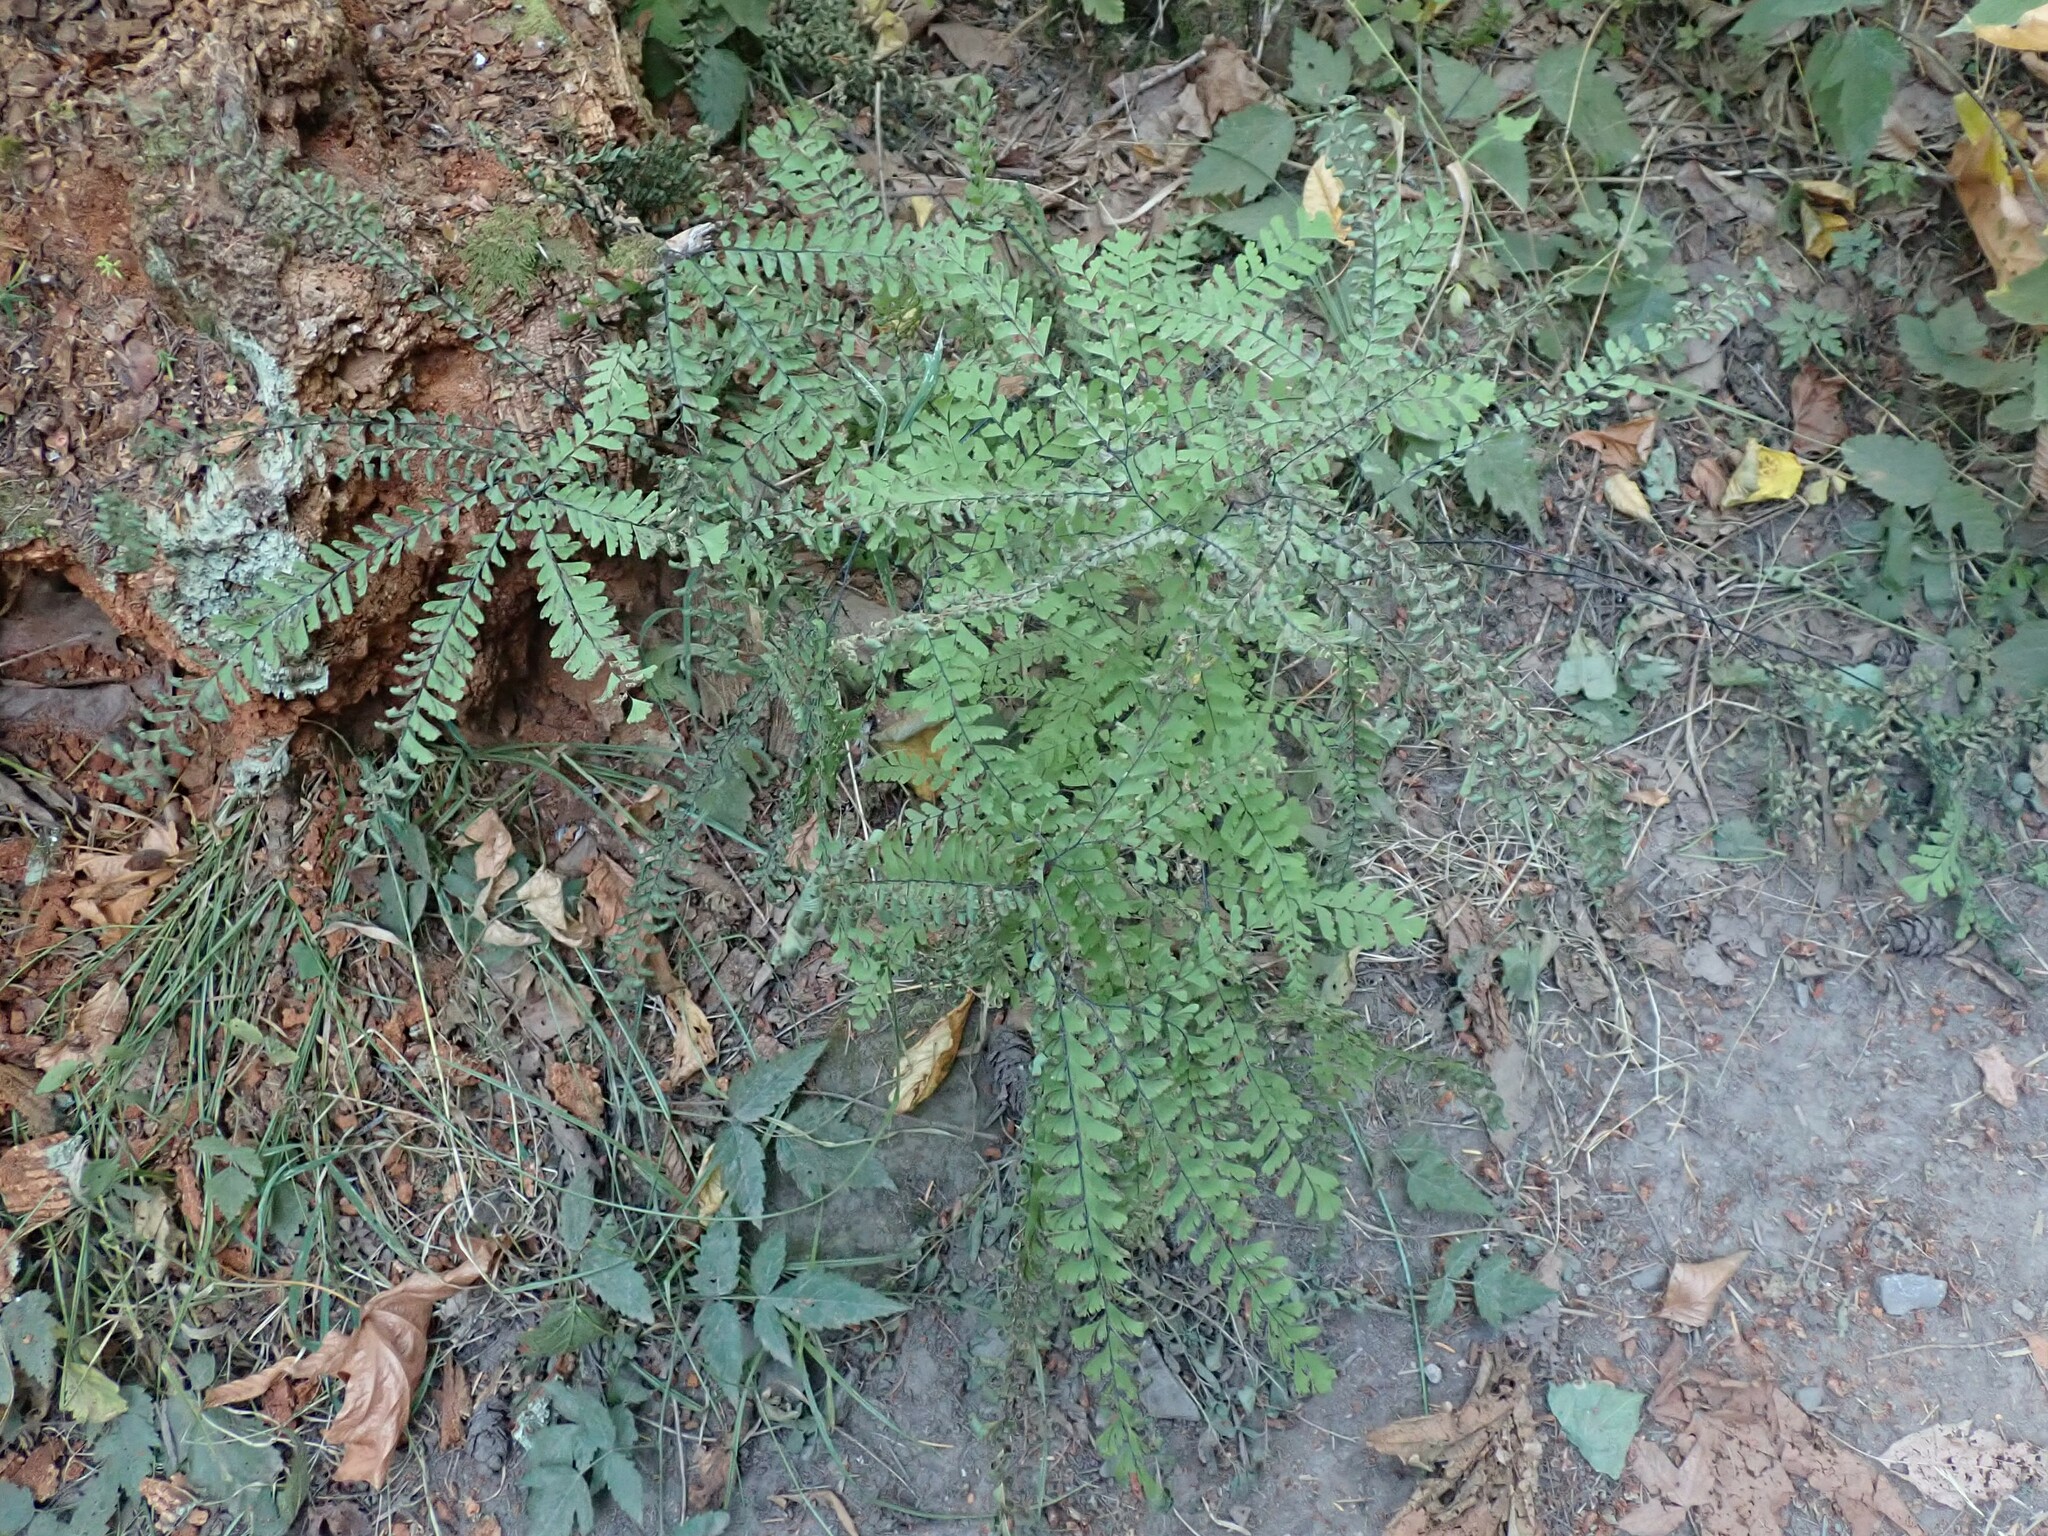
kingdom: Plantae
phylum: Tracheophyta
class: Polypodiopsida
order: Polypodiales
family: Pteridaceae
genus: Adiantum
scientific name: Adiantum aleuticum
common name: Aleutian maidenhair fern
